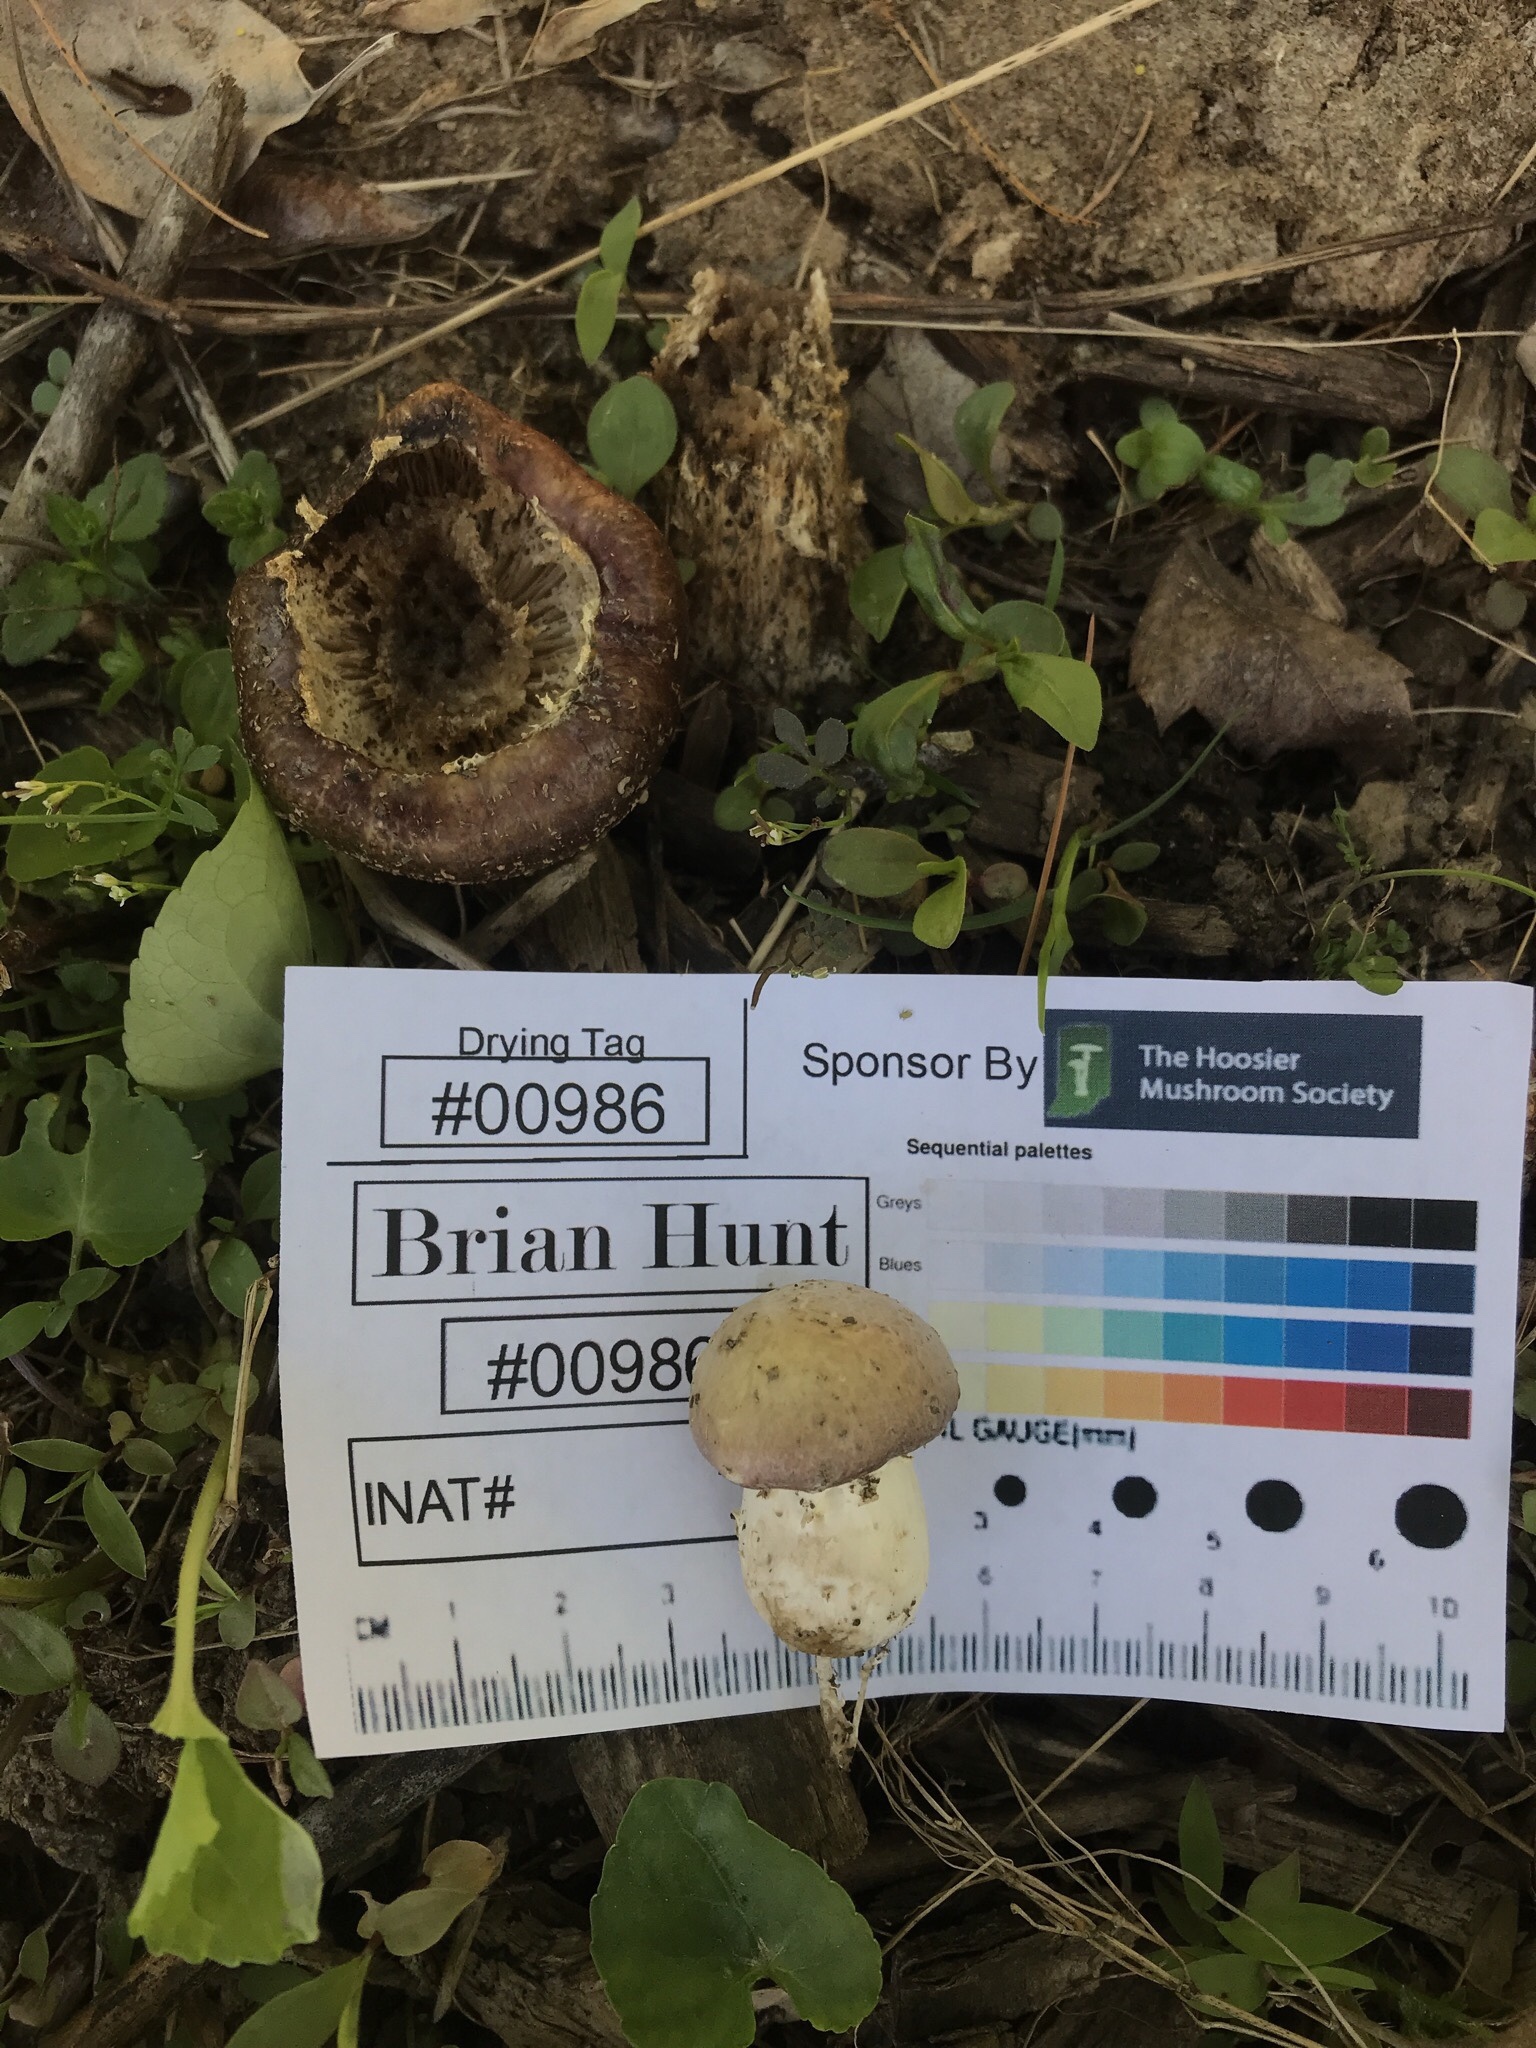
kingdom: Fungi
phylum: Basidiomycota
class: Agaricomycetes
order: Agaricales
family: Strophariaceae
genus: Stropharia
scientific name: Stropharia rugosoannulata
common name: Wine roundhead
